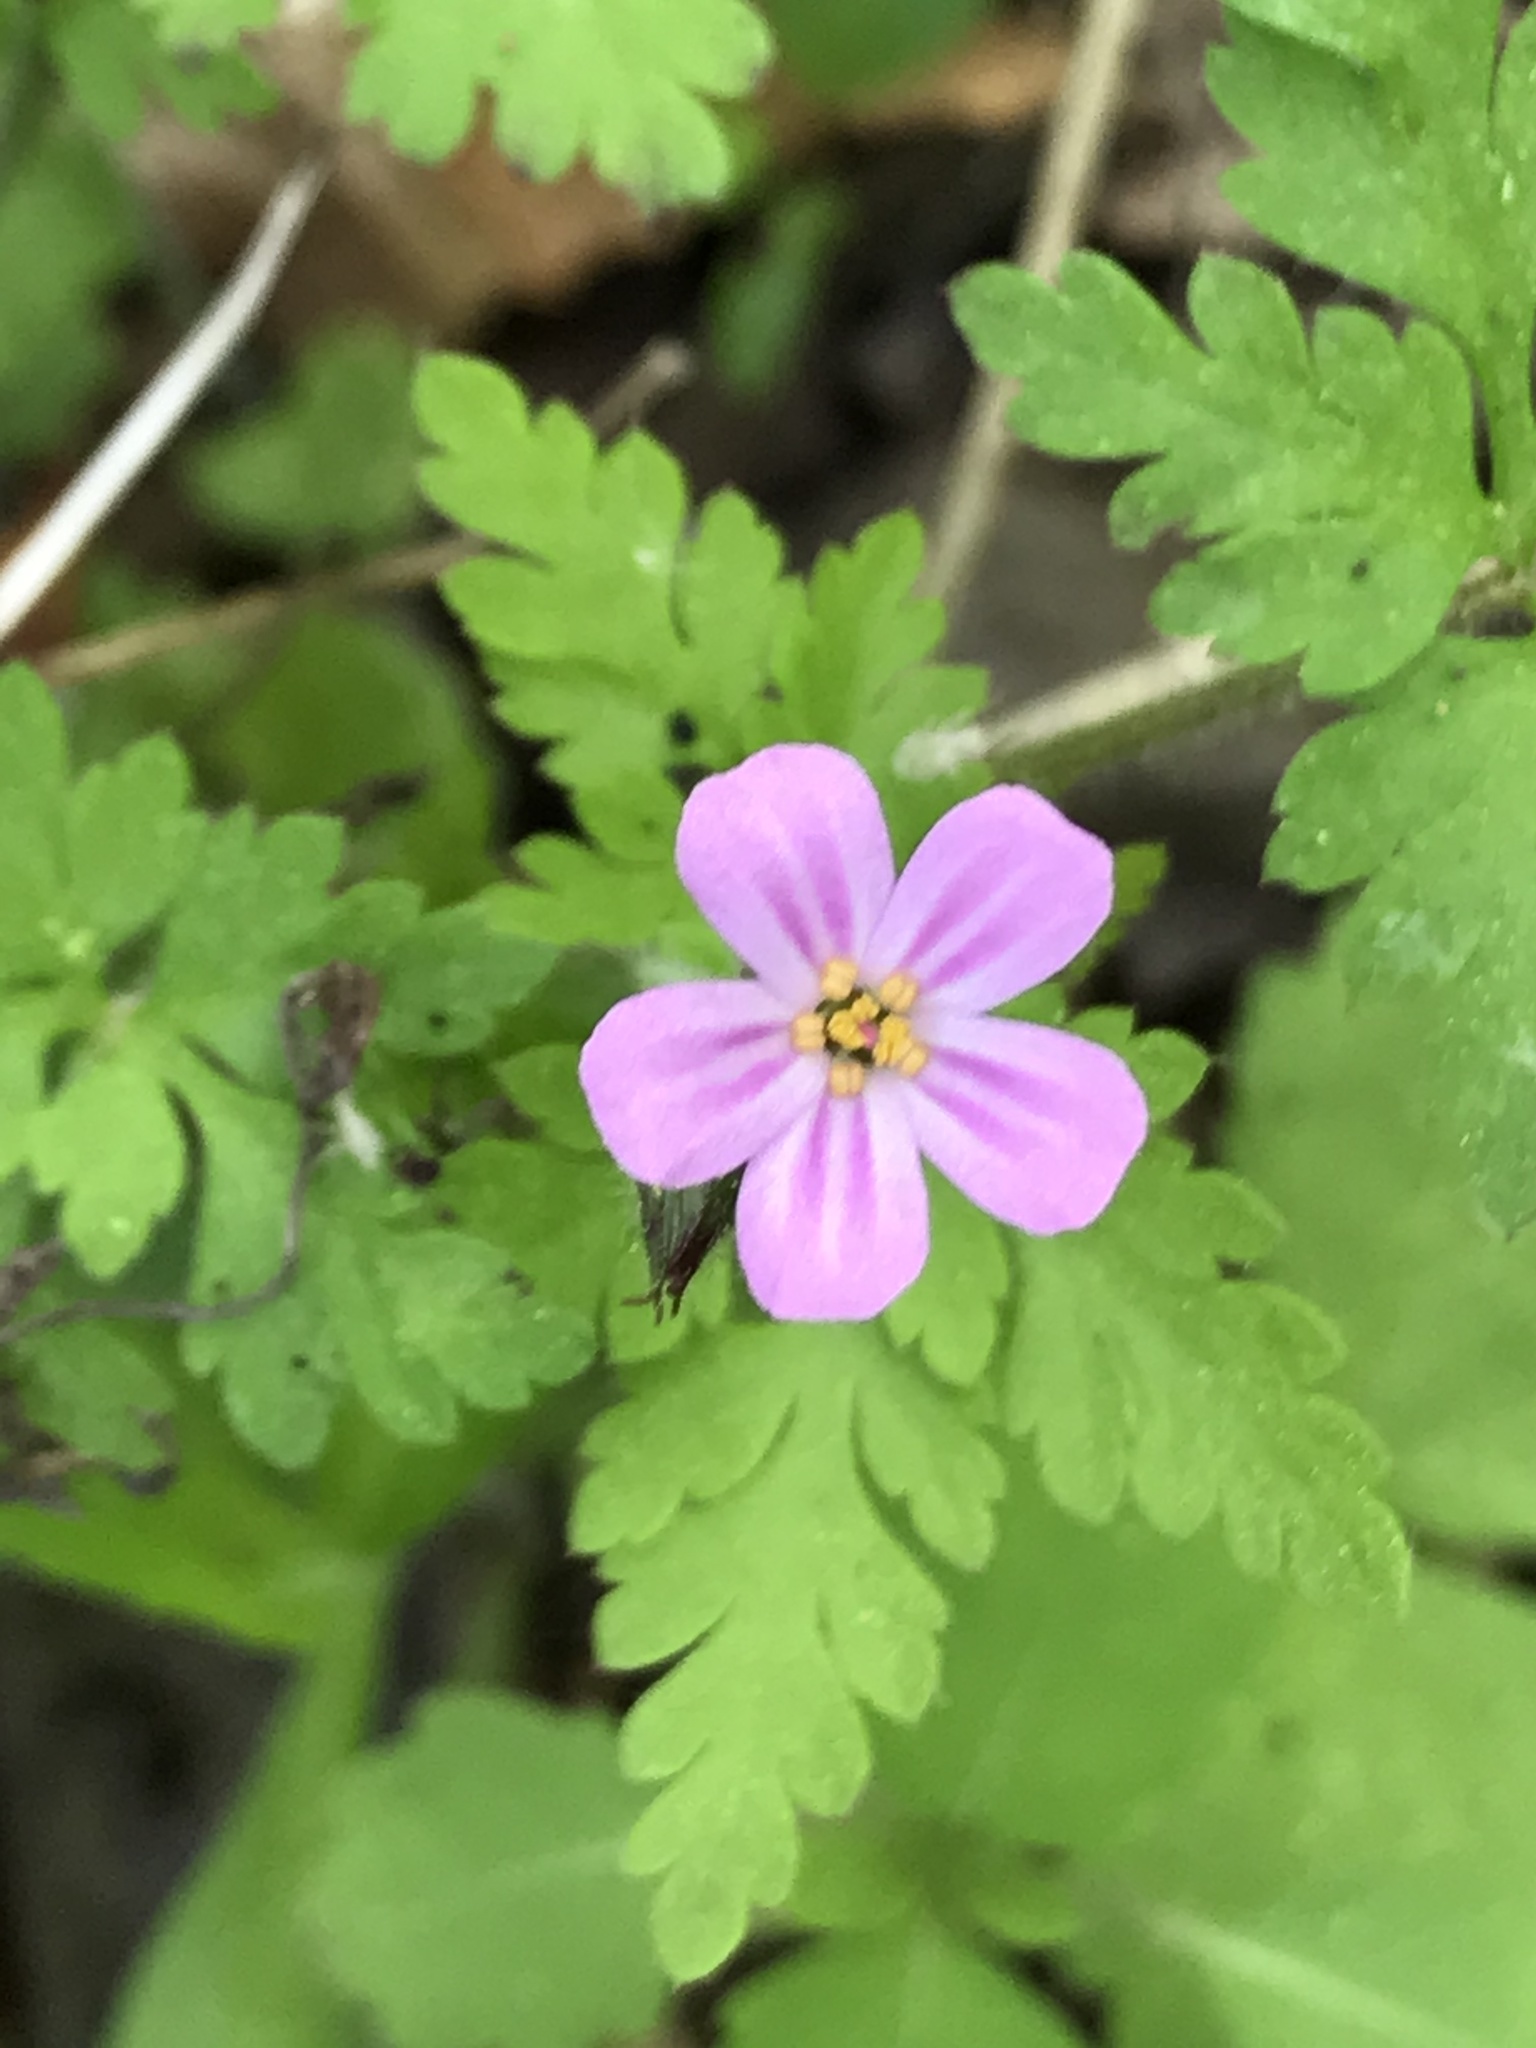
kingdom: Plantae
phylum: Tracheophyta
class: Magnoliopsida
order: Geraniales
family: Geraniaceae
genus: Geranium
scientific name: Geranium robertianum
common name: Herb-robert
